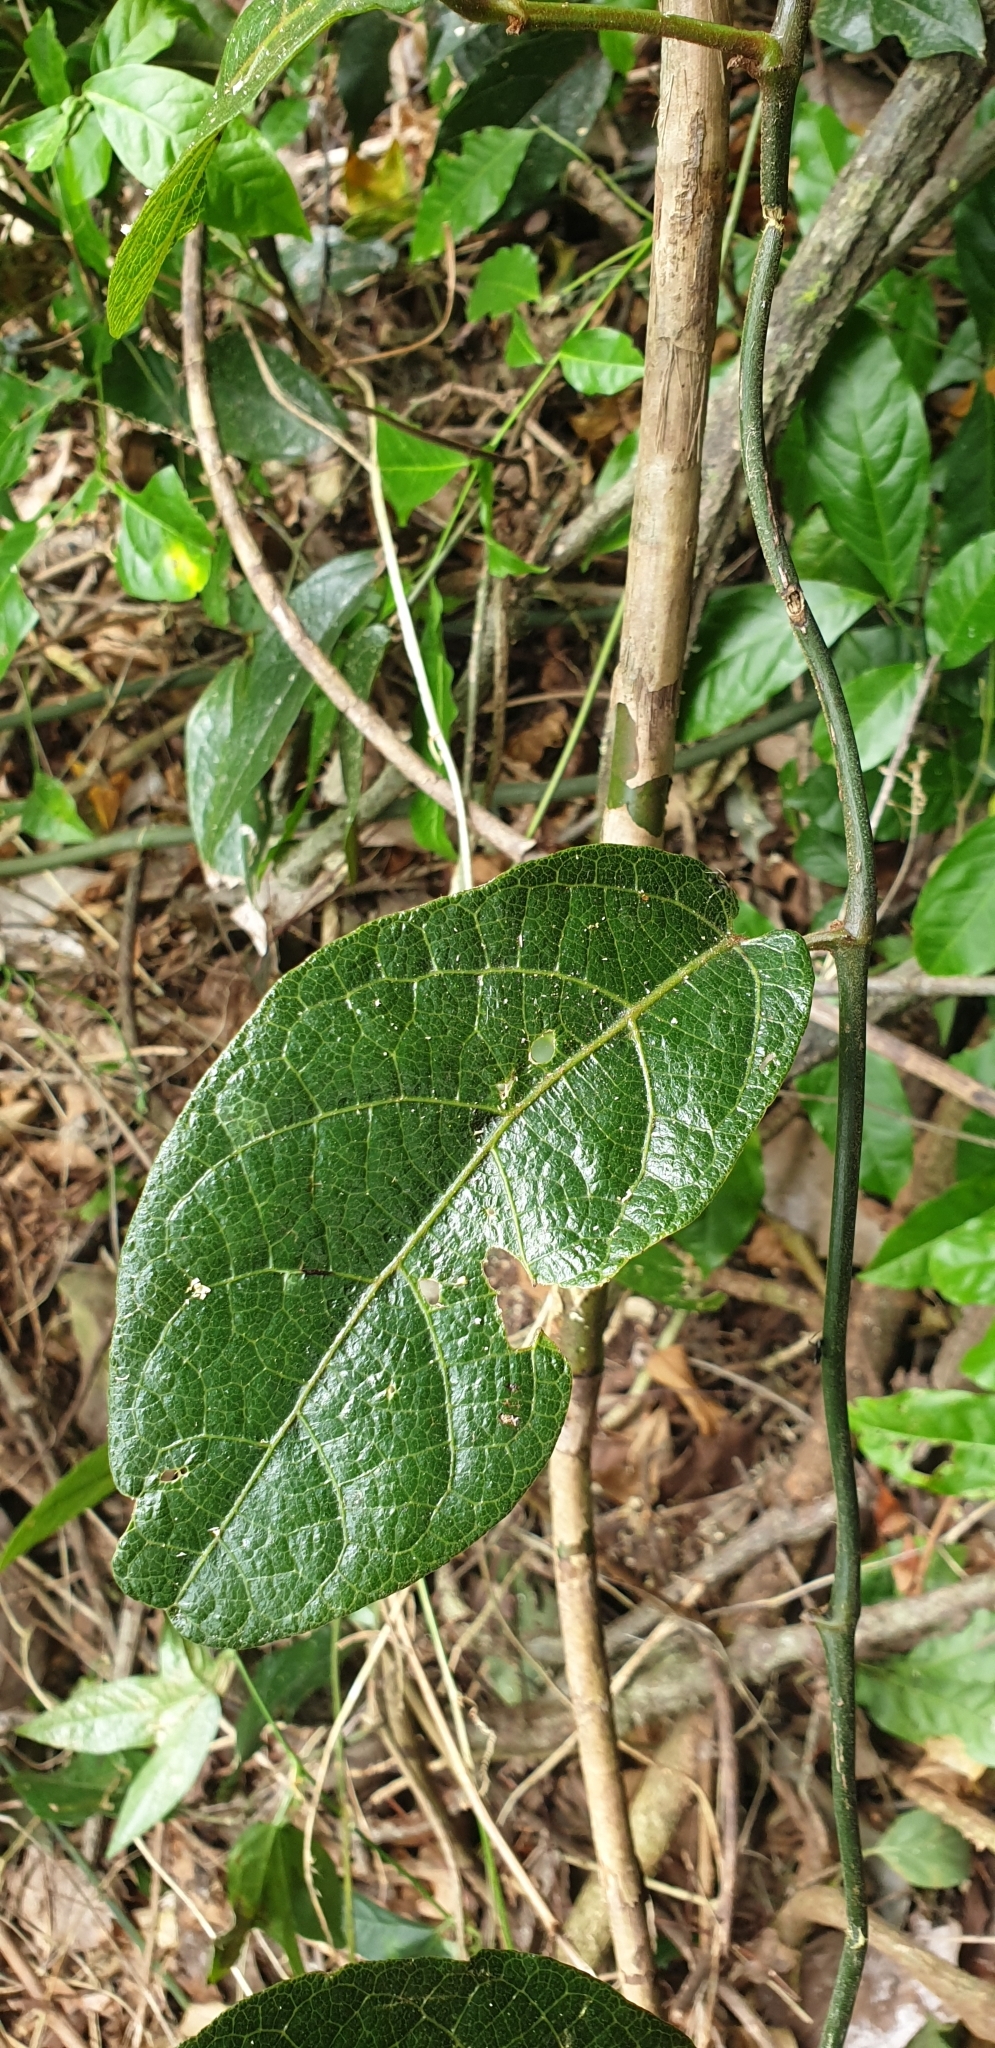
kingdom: Plantae
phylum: Tracheophyta
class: Magnoliopsida
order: Piperales
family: Aristolochiaceae
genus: Aristolochia
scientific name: Aristolochia praevenosa
